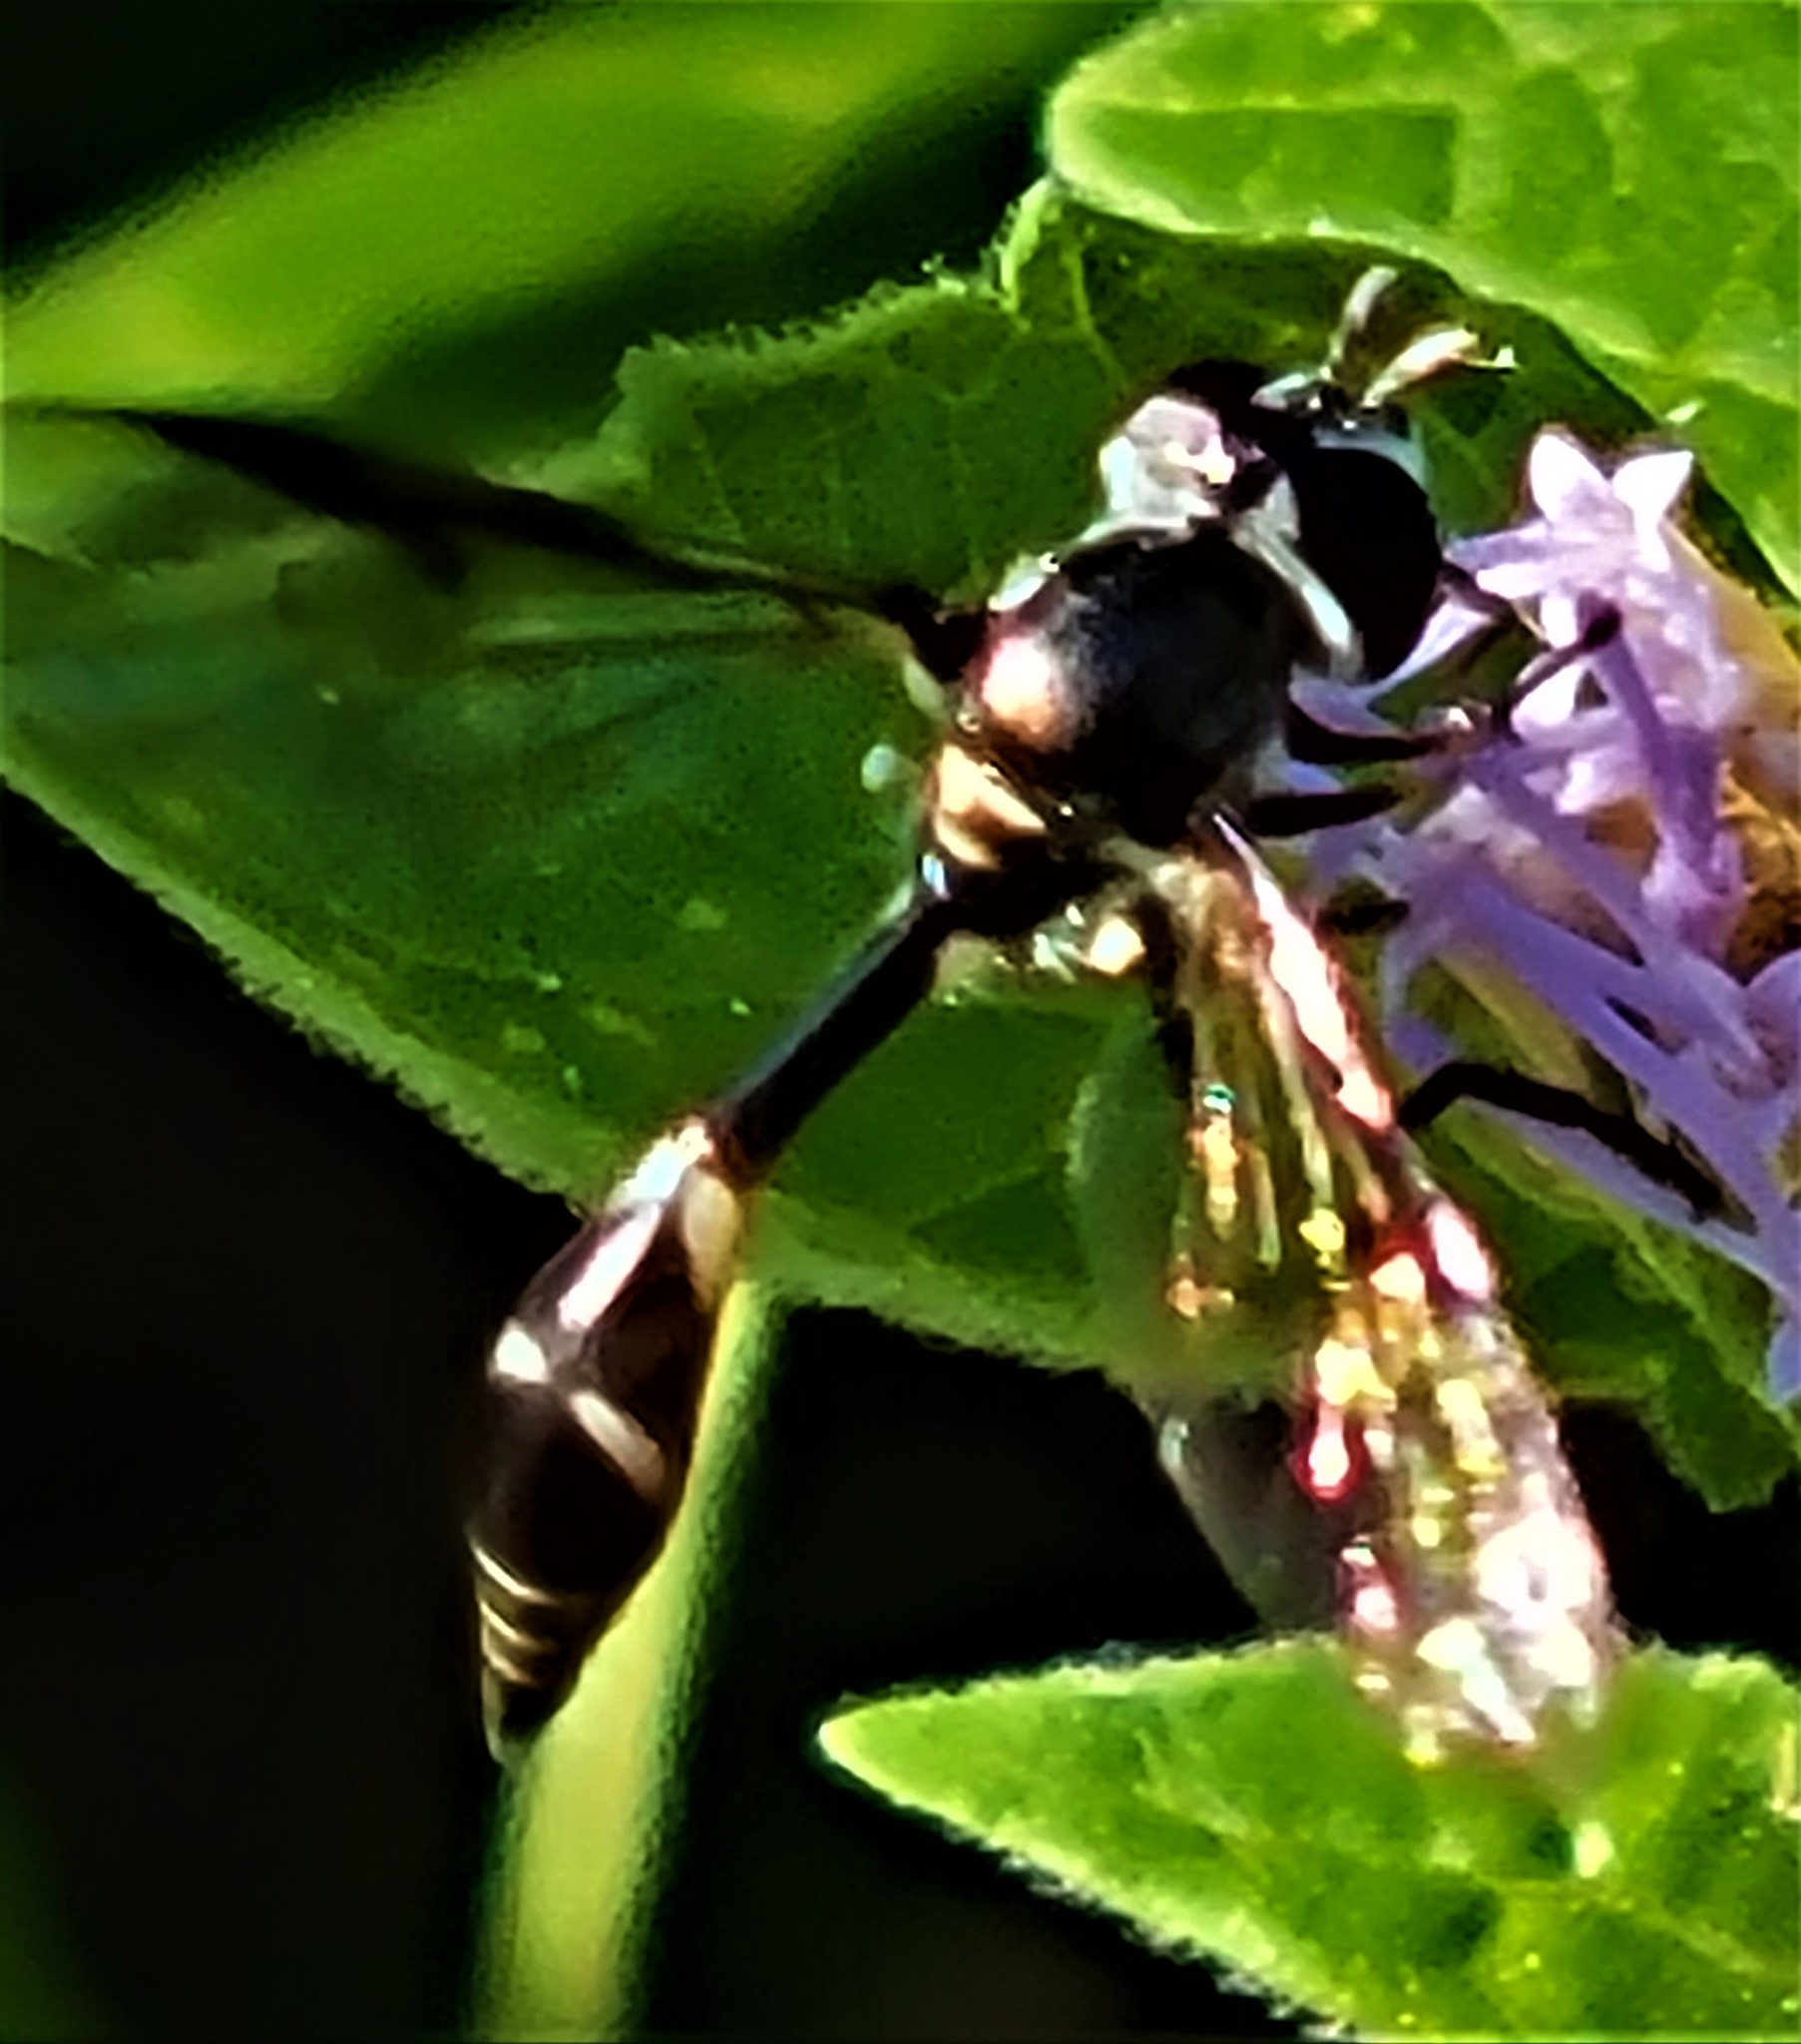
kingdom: Animalia
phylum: Arthropoda
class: Insecta
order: Diptera
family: Syrphidae
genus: Dioprosopa
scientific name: Dioprosopa clavatus
